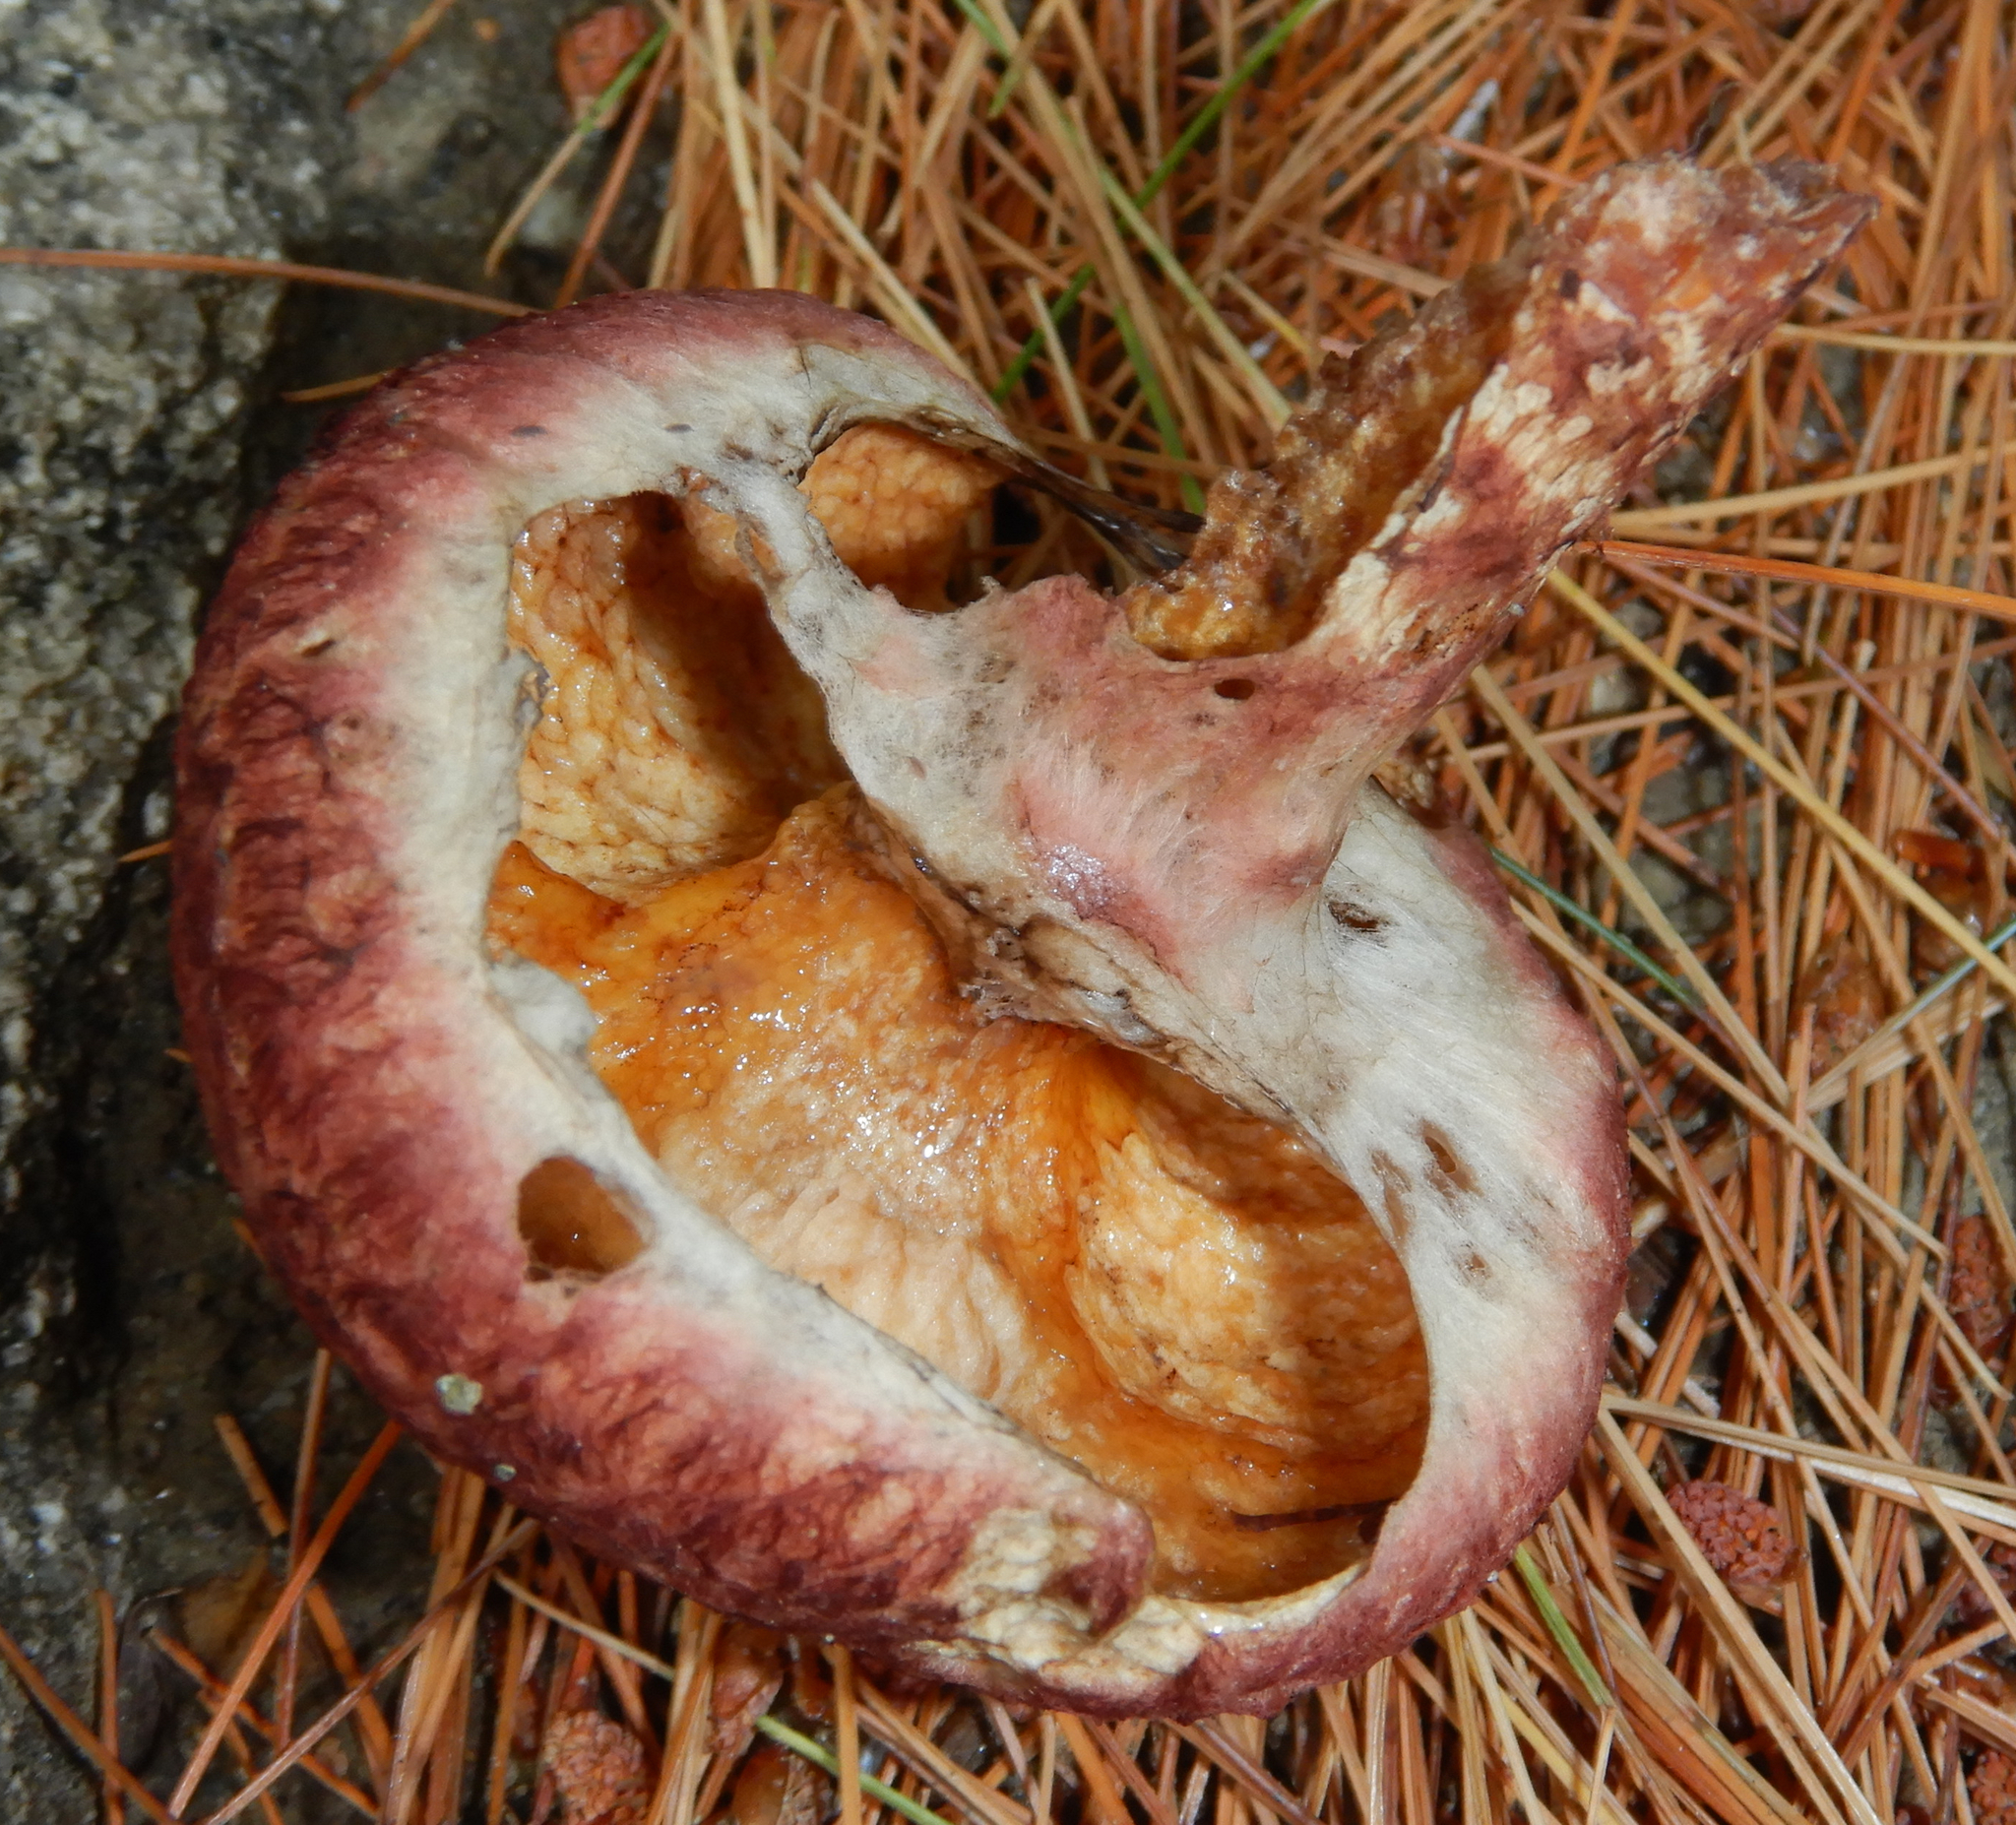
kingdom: Fungi
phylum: Basidiomycota
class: Agaricomycetes
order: Boletales
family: Suillaceae
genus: Suillus
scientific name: Suillus spraguei
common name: Painted suillus
